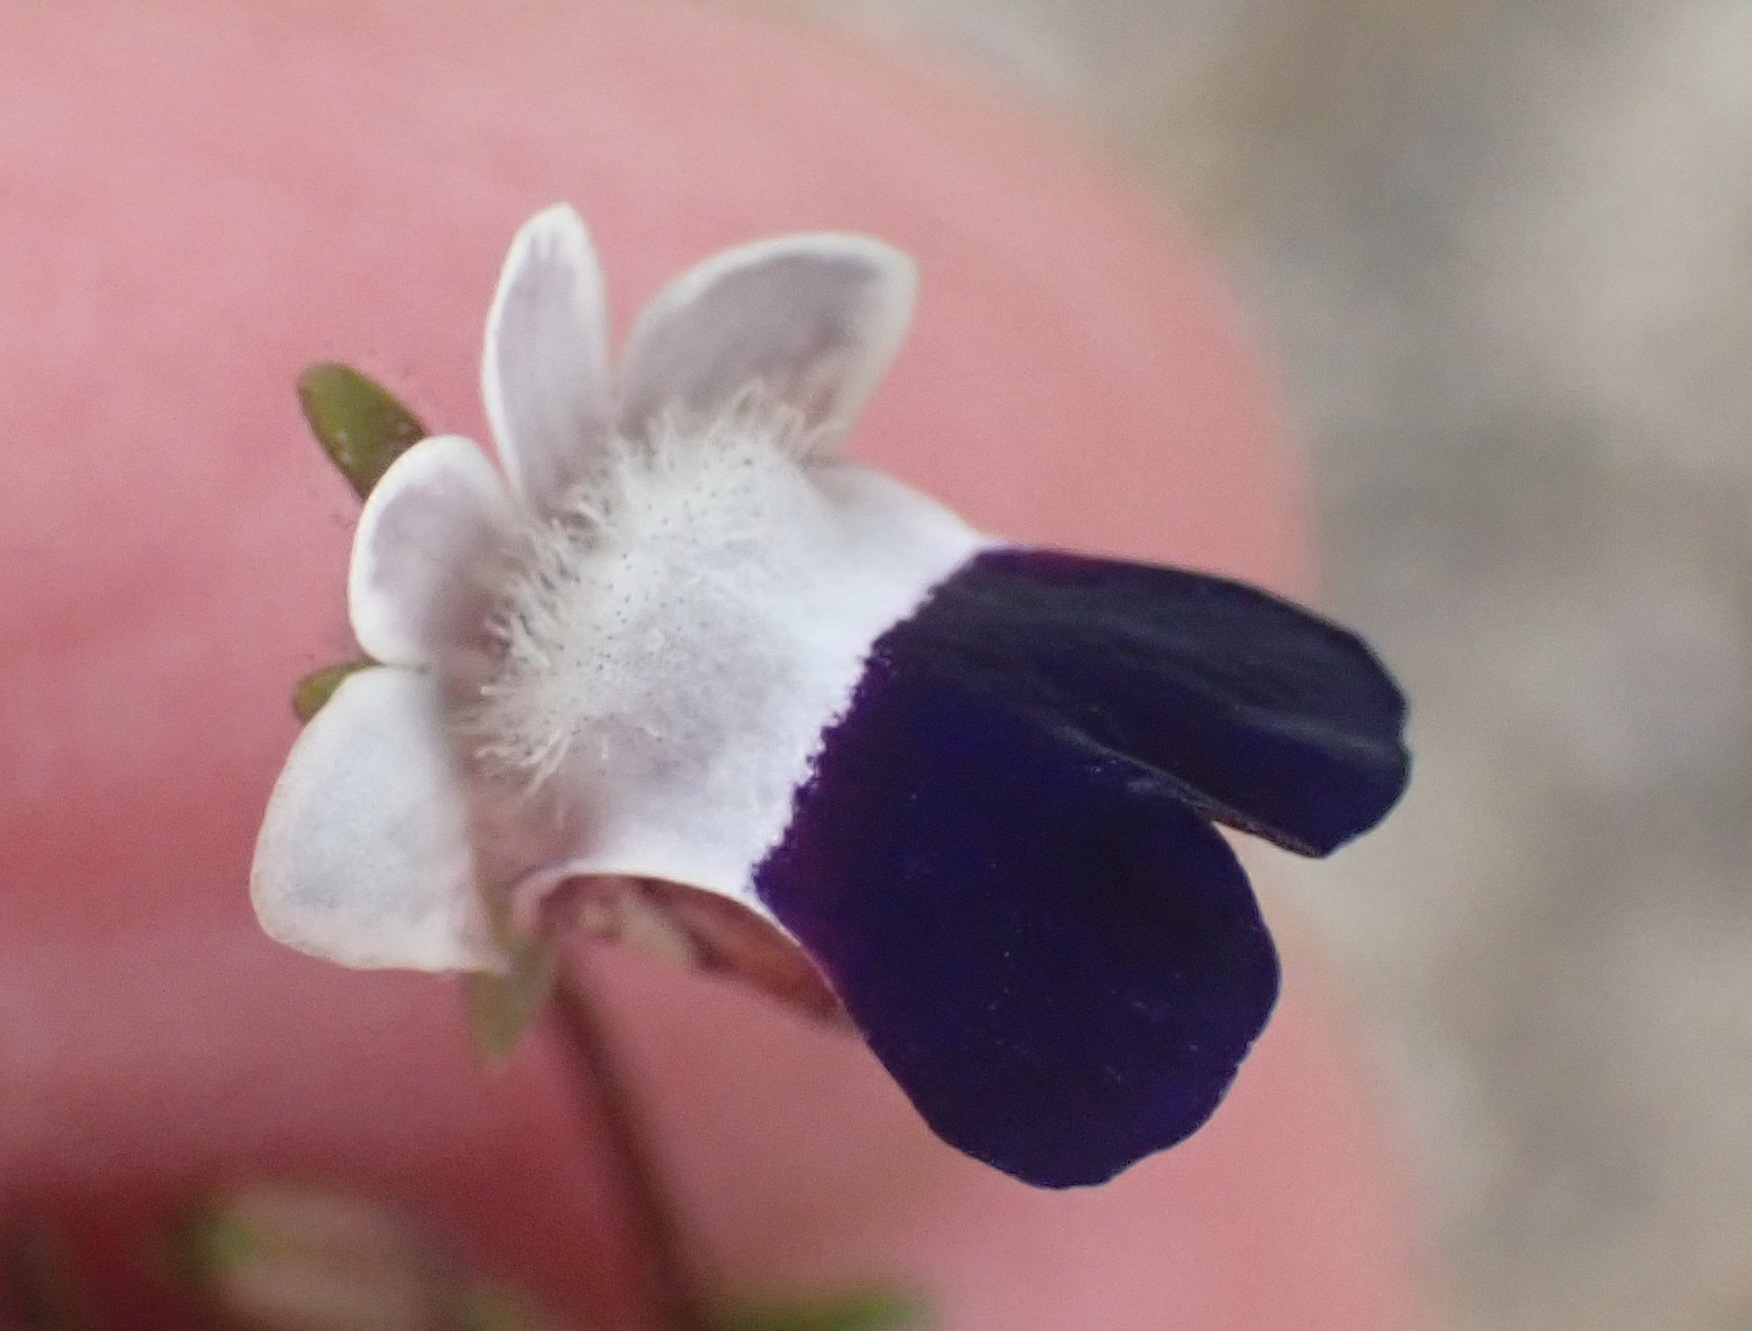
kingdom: Plantae
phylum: Tracheophyta
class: Magnoliopsida
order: Lamiales
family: Scrophulariaceae
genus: Nemesia
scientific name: Nemesia barbata
